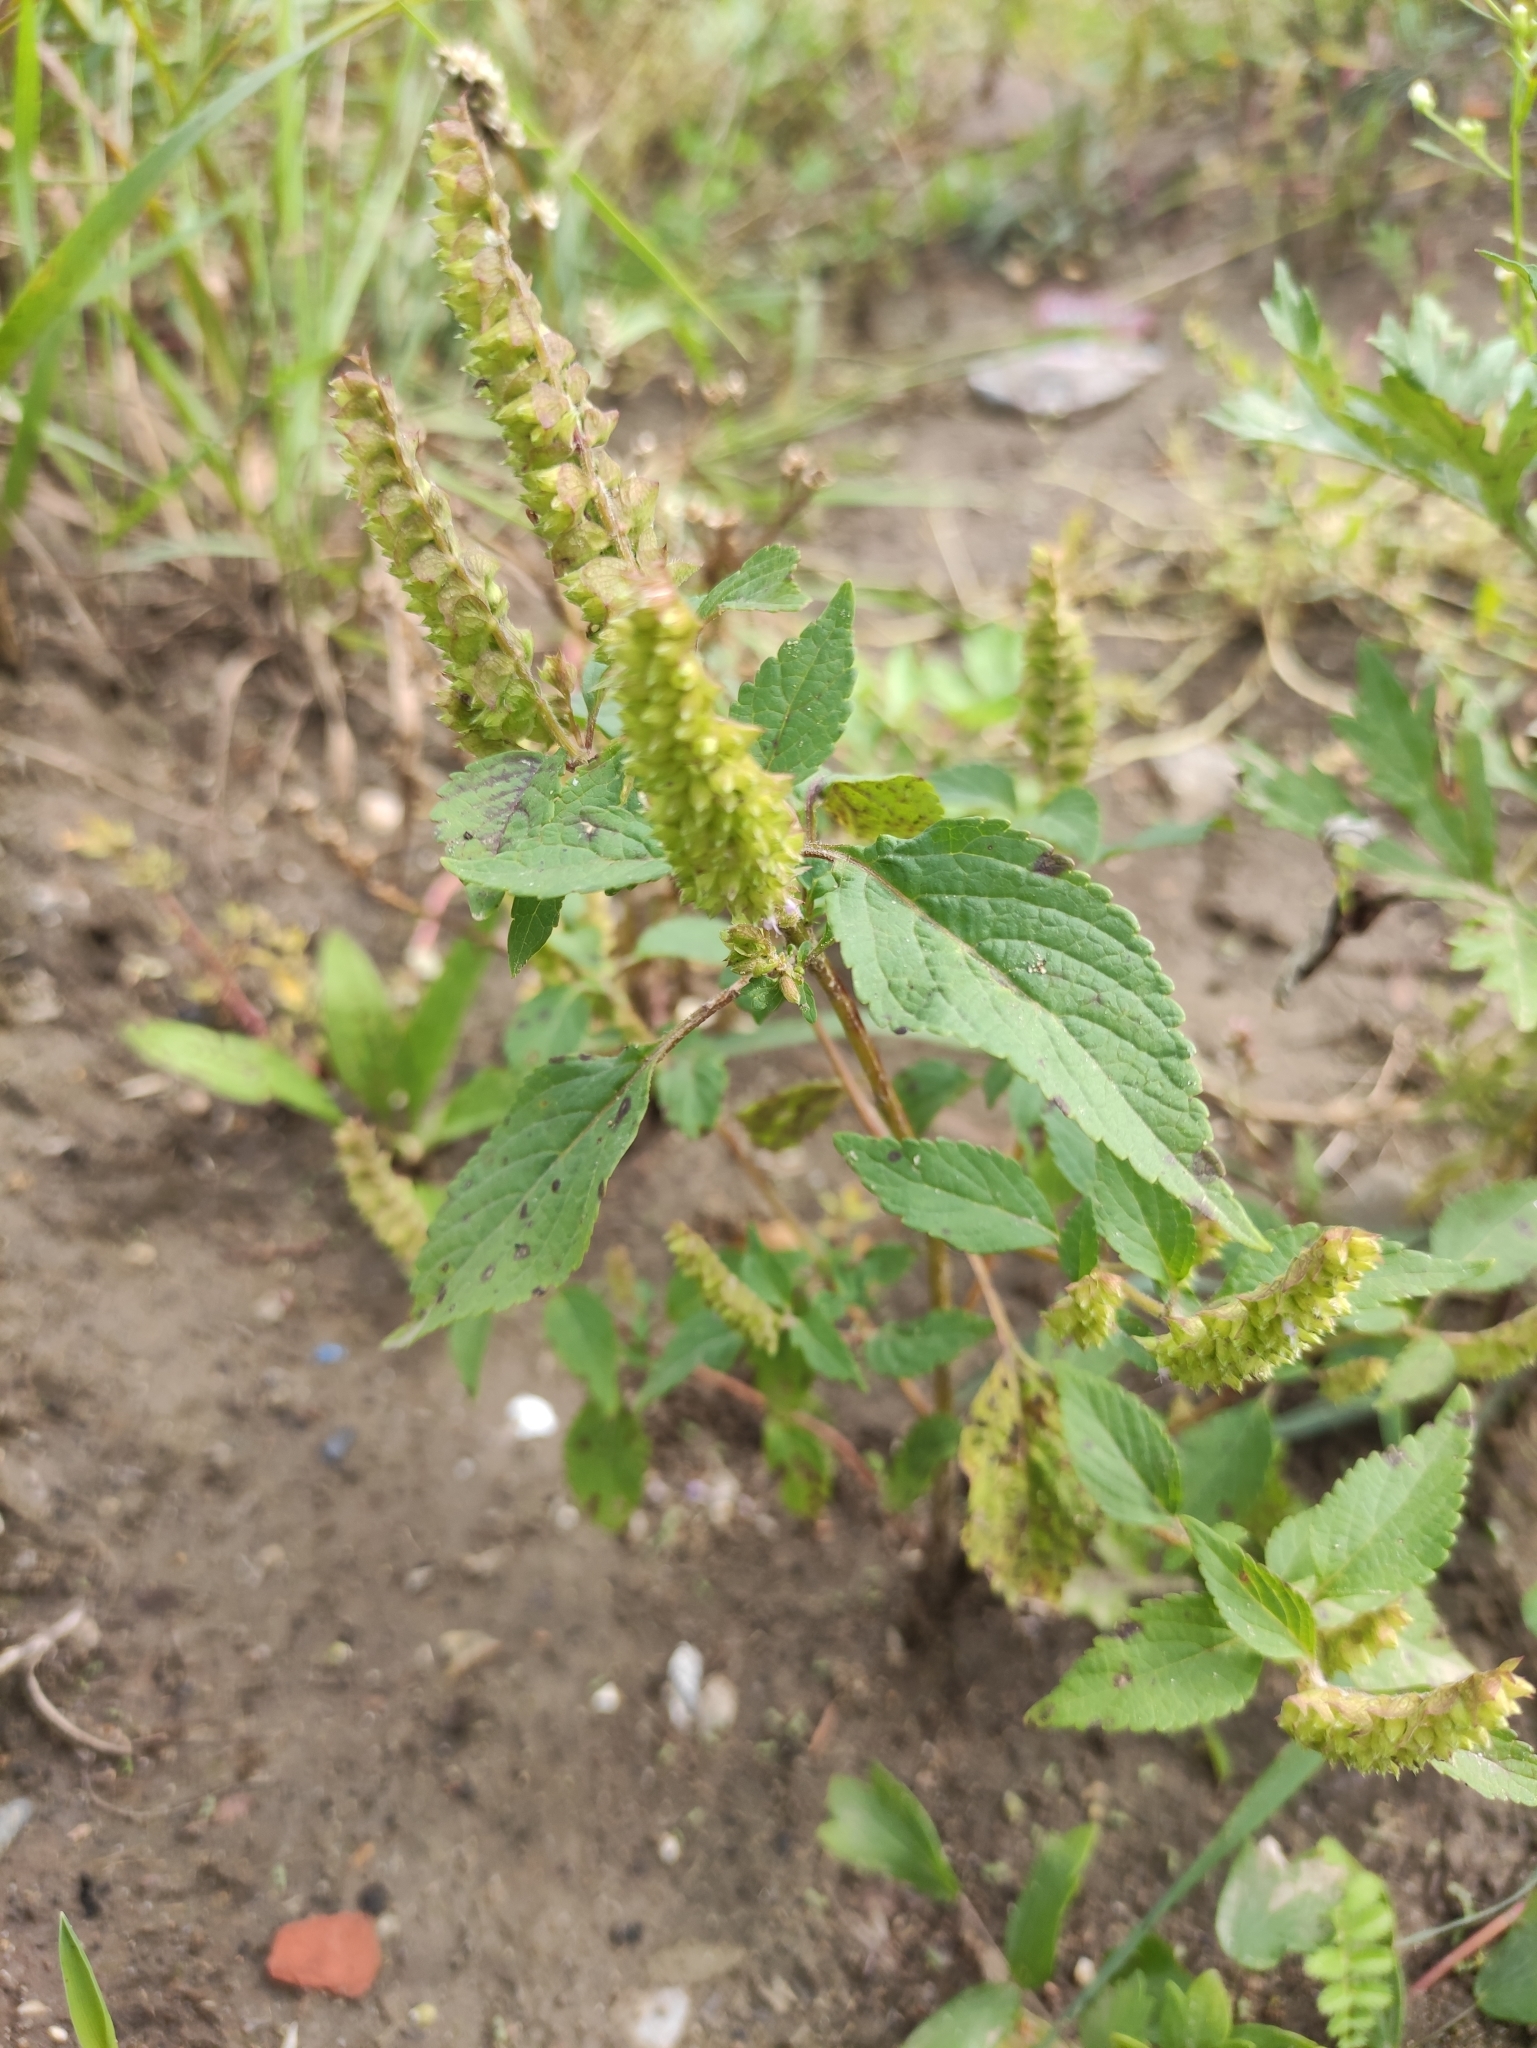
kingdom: Plantae
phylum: Tracheophyta
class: Magnoliopsida
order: Lamiales
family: Lamiaceae
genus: Elsholtzia
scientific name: Elsholtzia ciliata
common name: Ciliate elsholtzia
